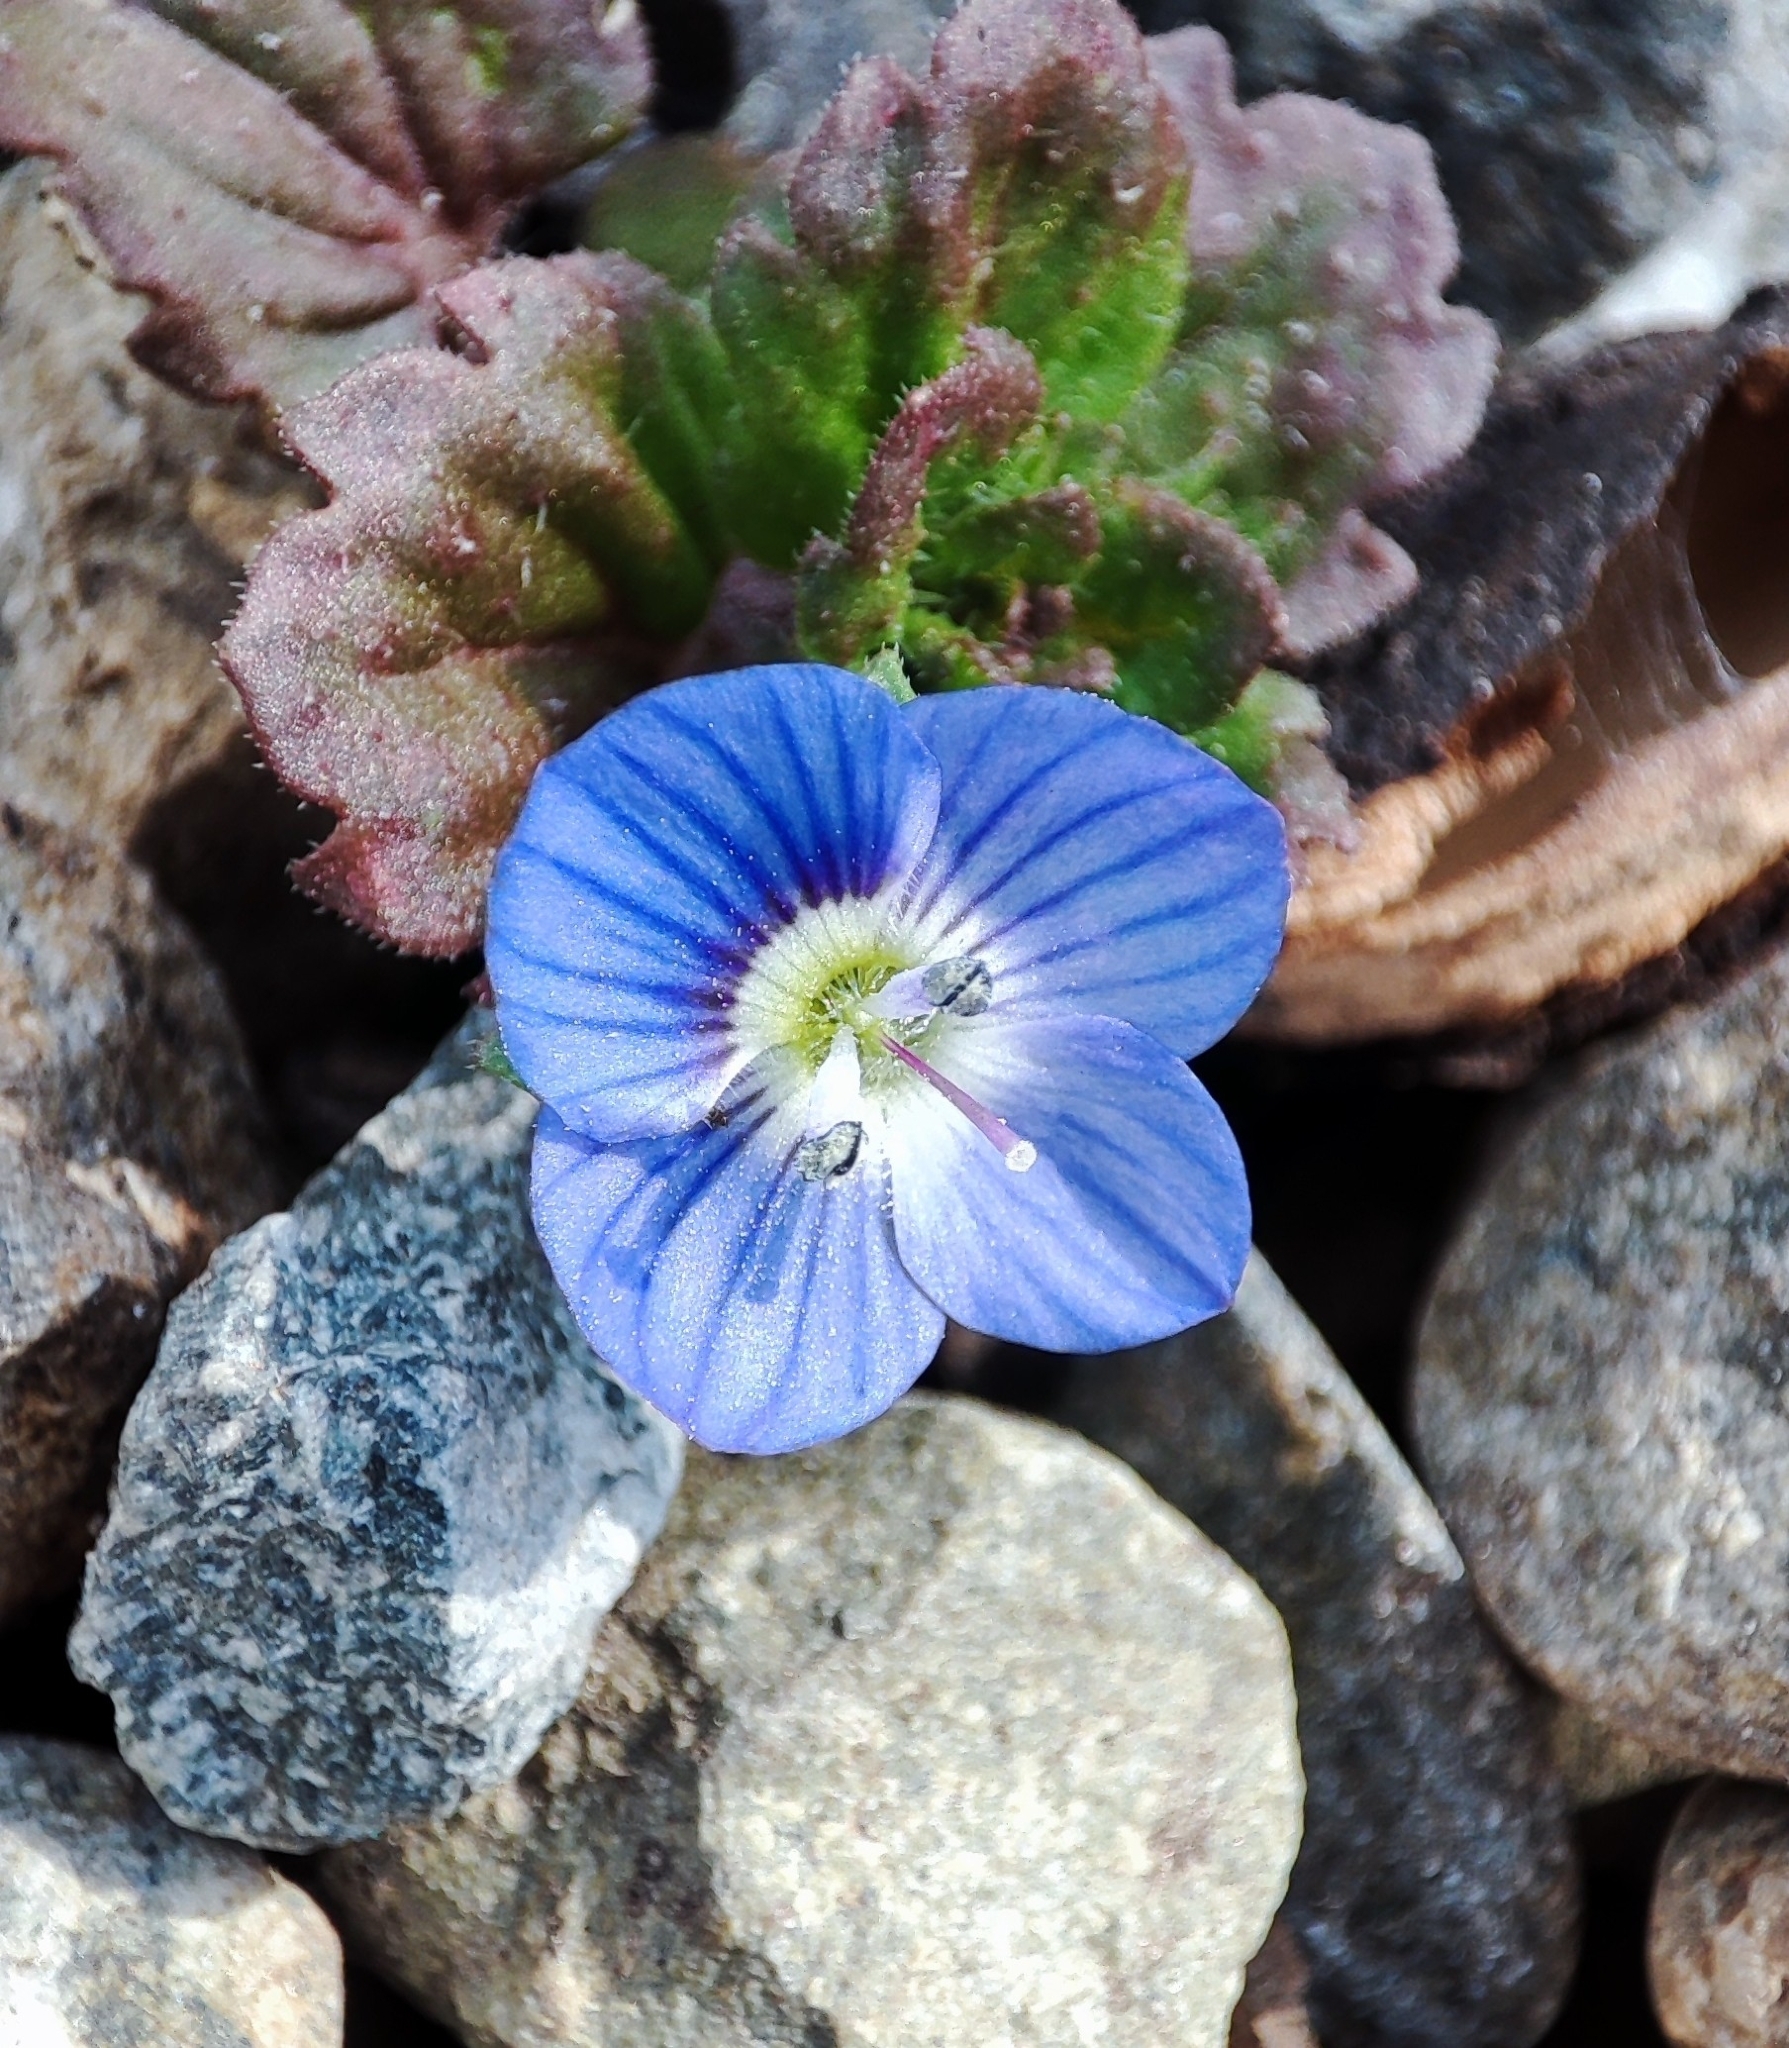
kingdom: Plantae
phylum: Tracheophyta
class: Magnoliopsida
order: Lamiales
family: Plantaginaceae
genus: Veronica
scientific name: Veronica persica
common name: Common field-speedwell
